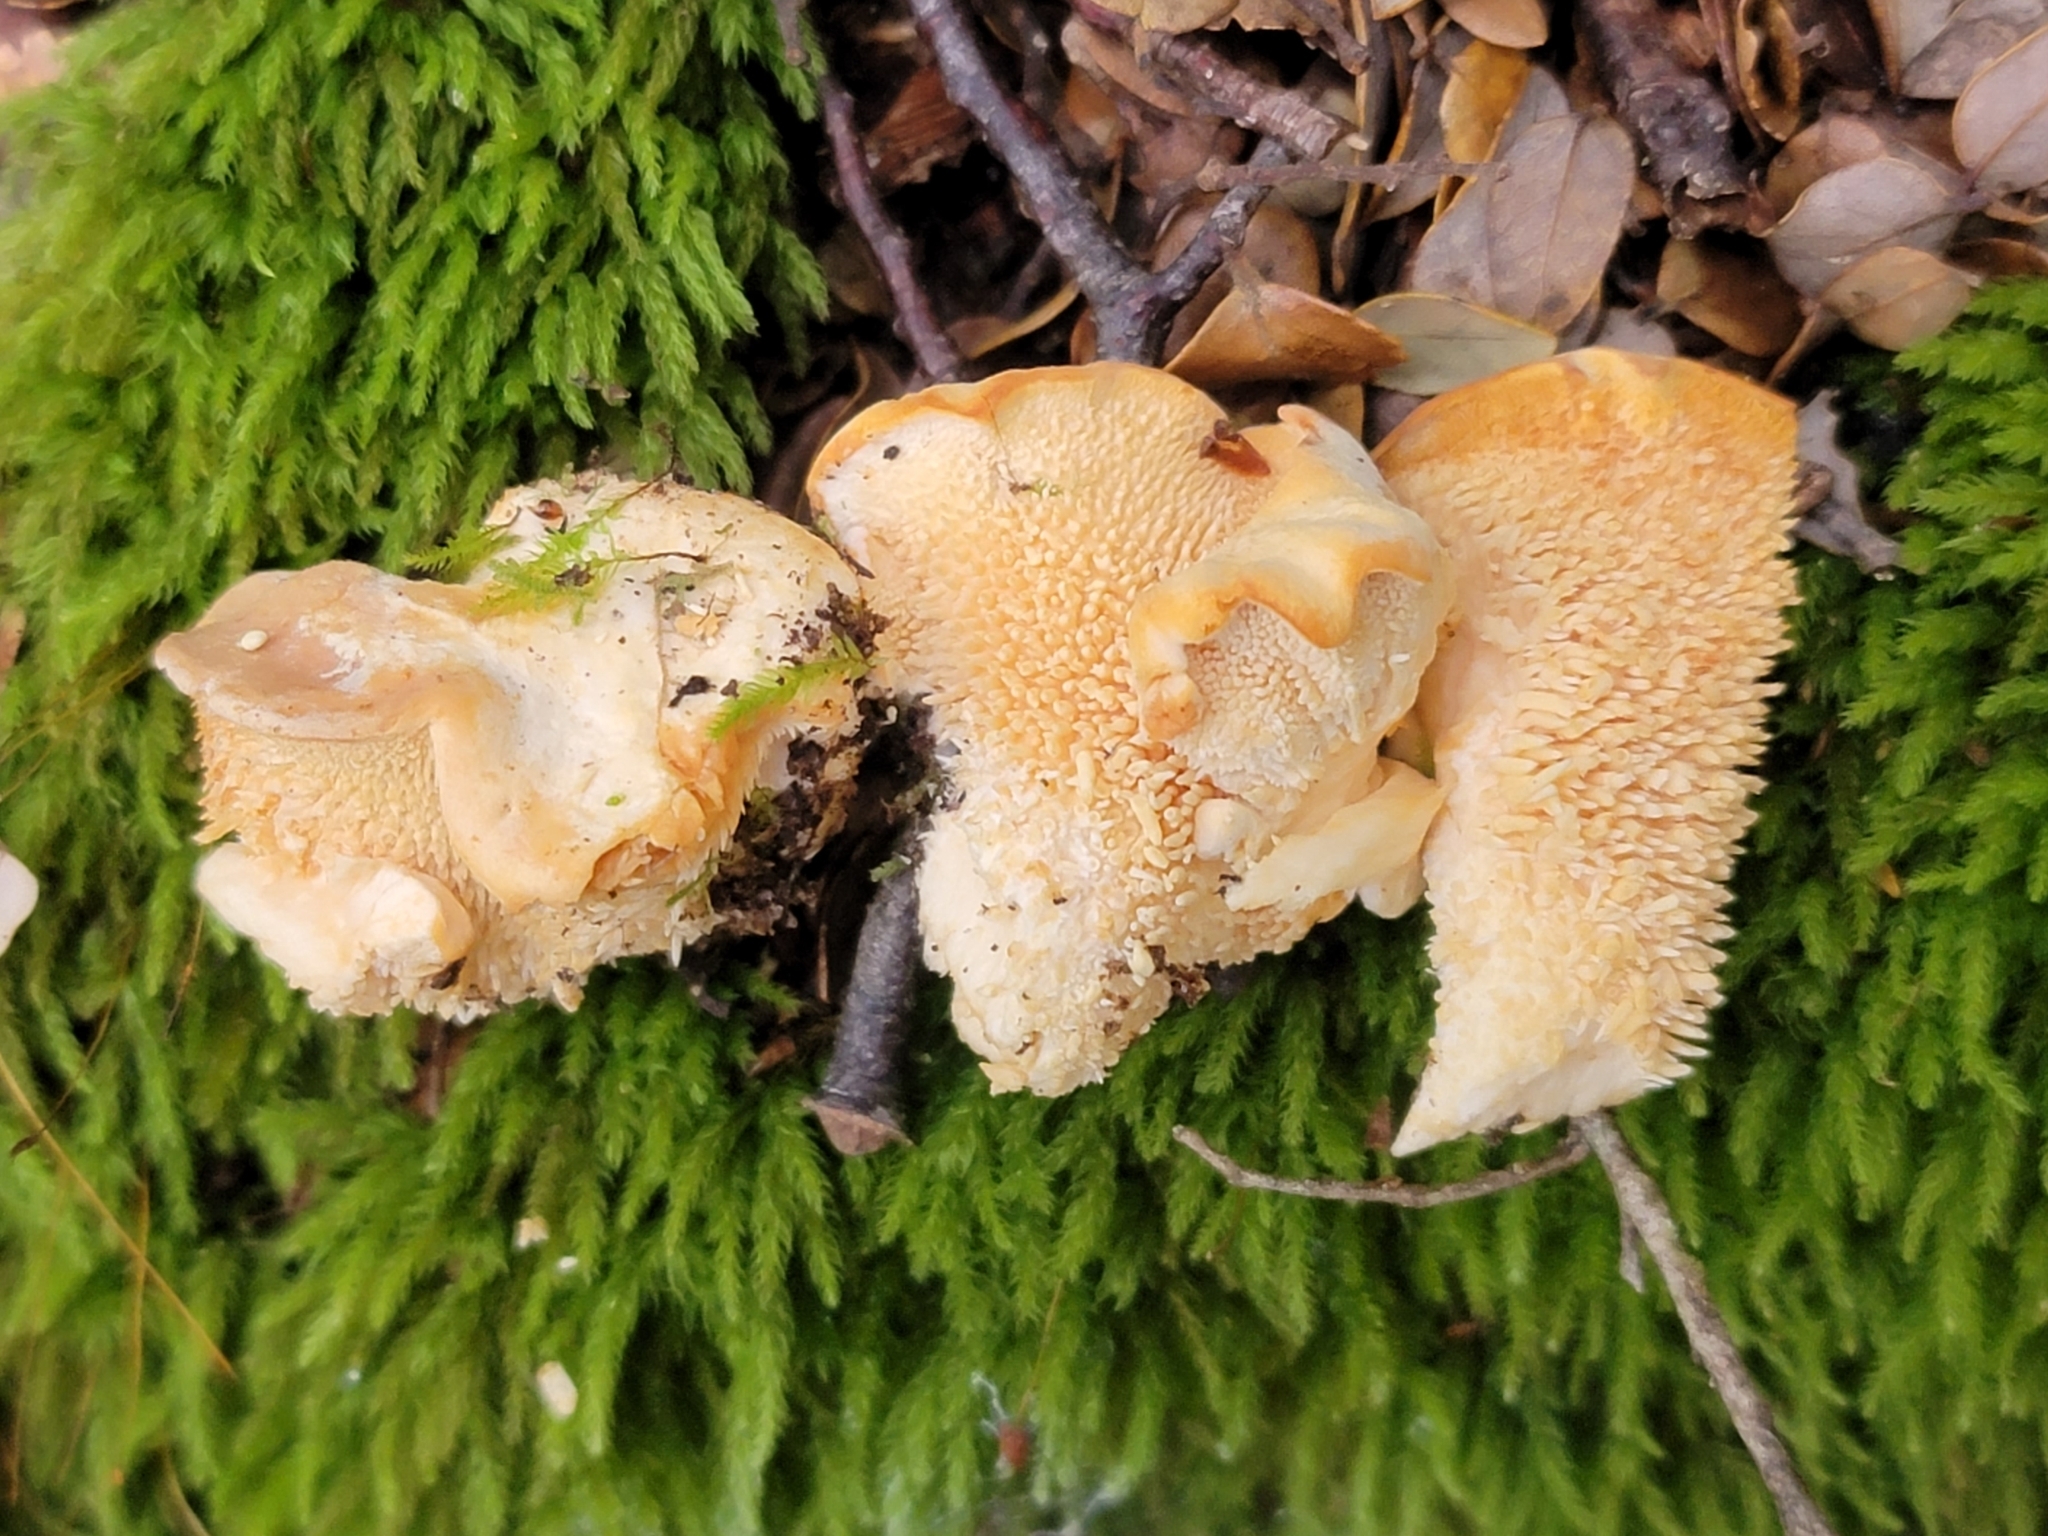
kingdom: Fungi
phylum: Basidiomycota
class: Agaricomycetes
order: Cantharellales
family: Hydnaceae
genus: Hydnum
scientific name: Hydnum ambustum
